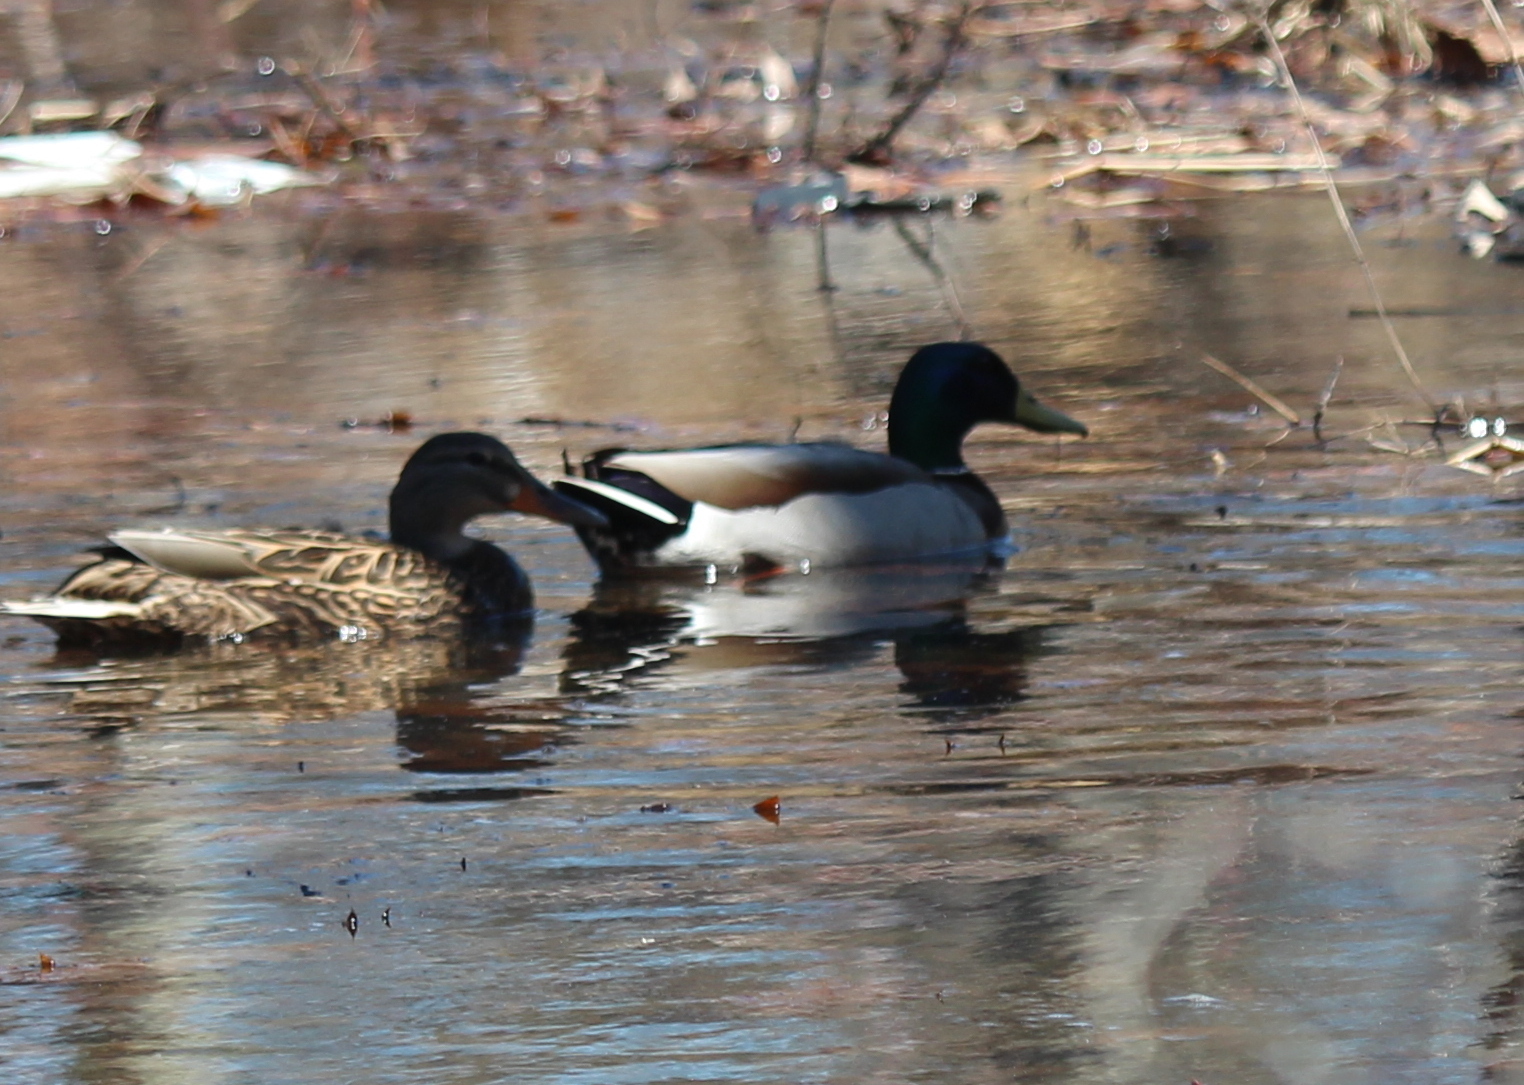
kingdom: Animalia
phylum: Chordata
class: Aves
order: Anseriformes
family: Anatidae
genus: Anas
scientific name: Anas platyrhynchos
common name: Mallard
